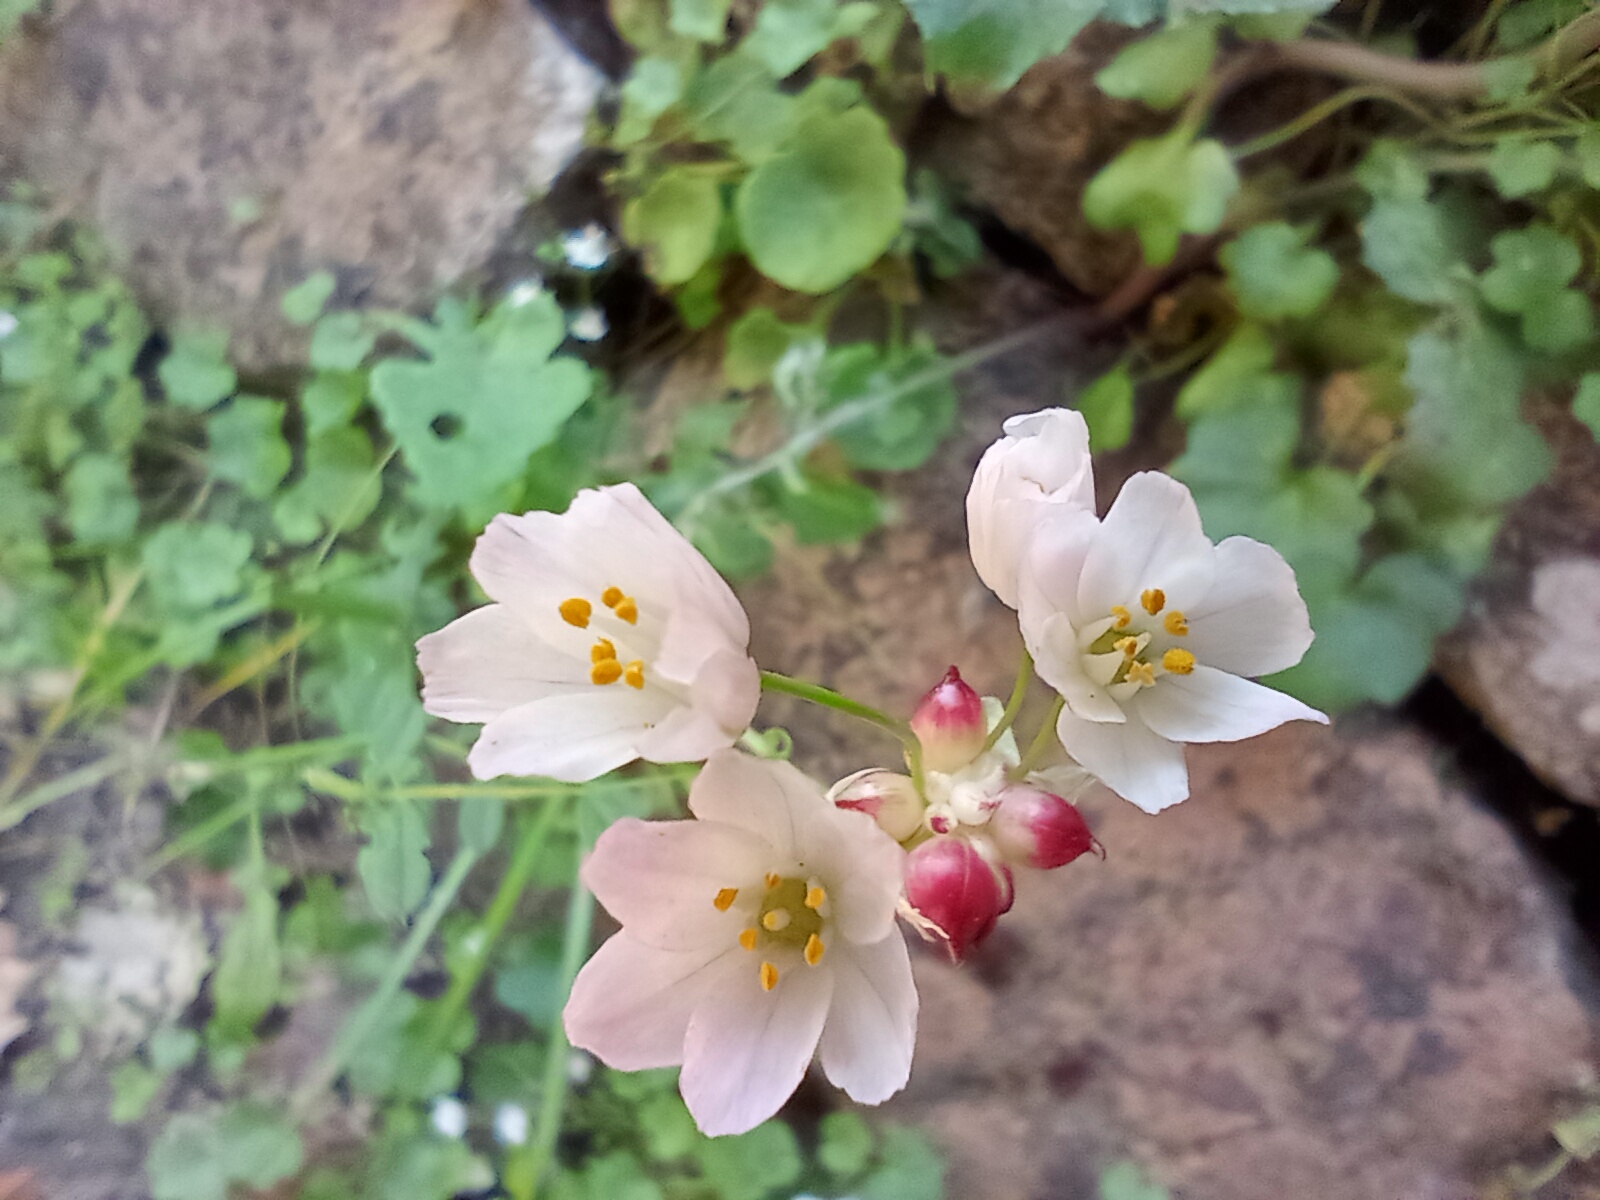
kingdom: Plantae
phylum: Tracheophyta
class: Liliopsida
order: Asparagales
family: Amaryllidaceae
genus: Allium
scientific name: Allium roseum
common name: Rosy garlic
